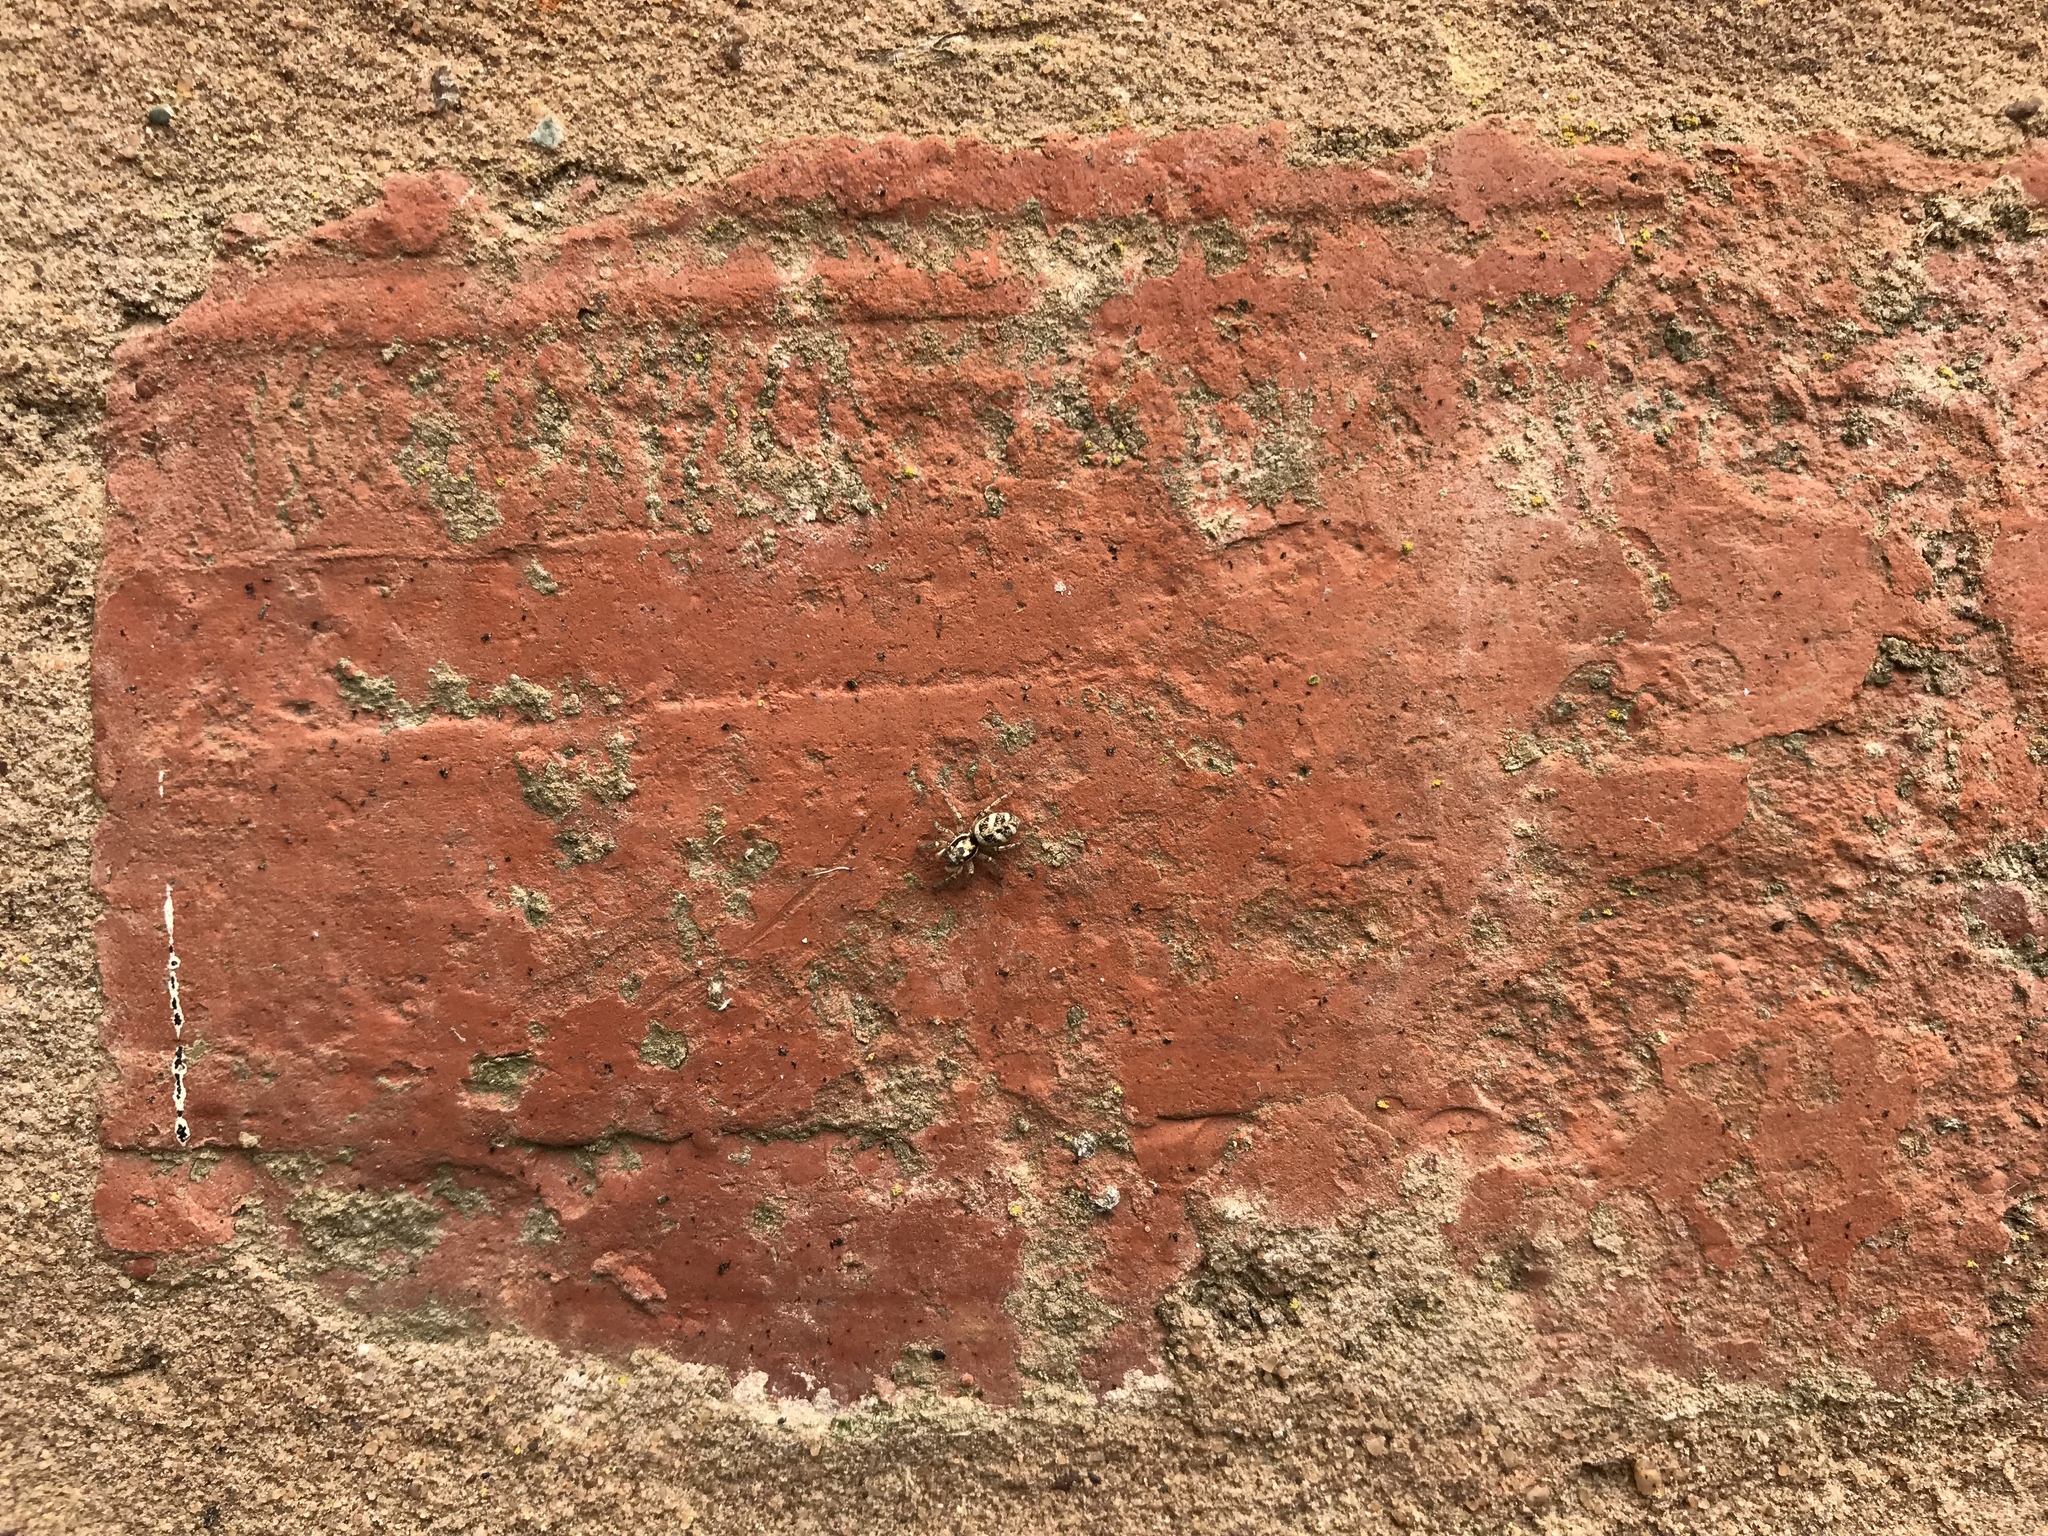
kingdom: Animalia
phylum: Arthropoda
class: Arachnida
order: Araneae
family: Salticidae
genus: Salticus
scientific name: Salticus scenicus
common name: Zebra jumper
